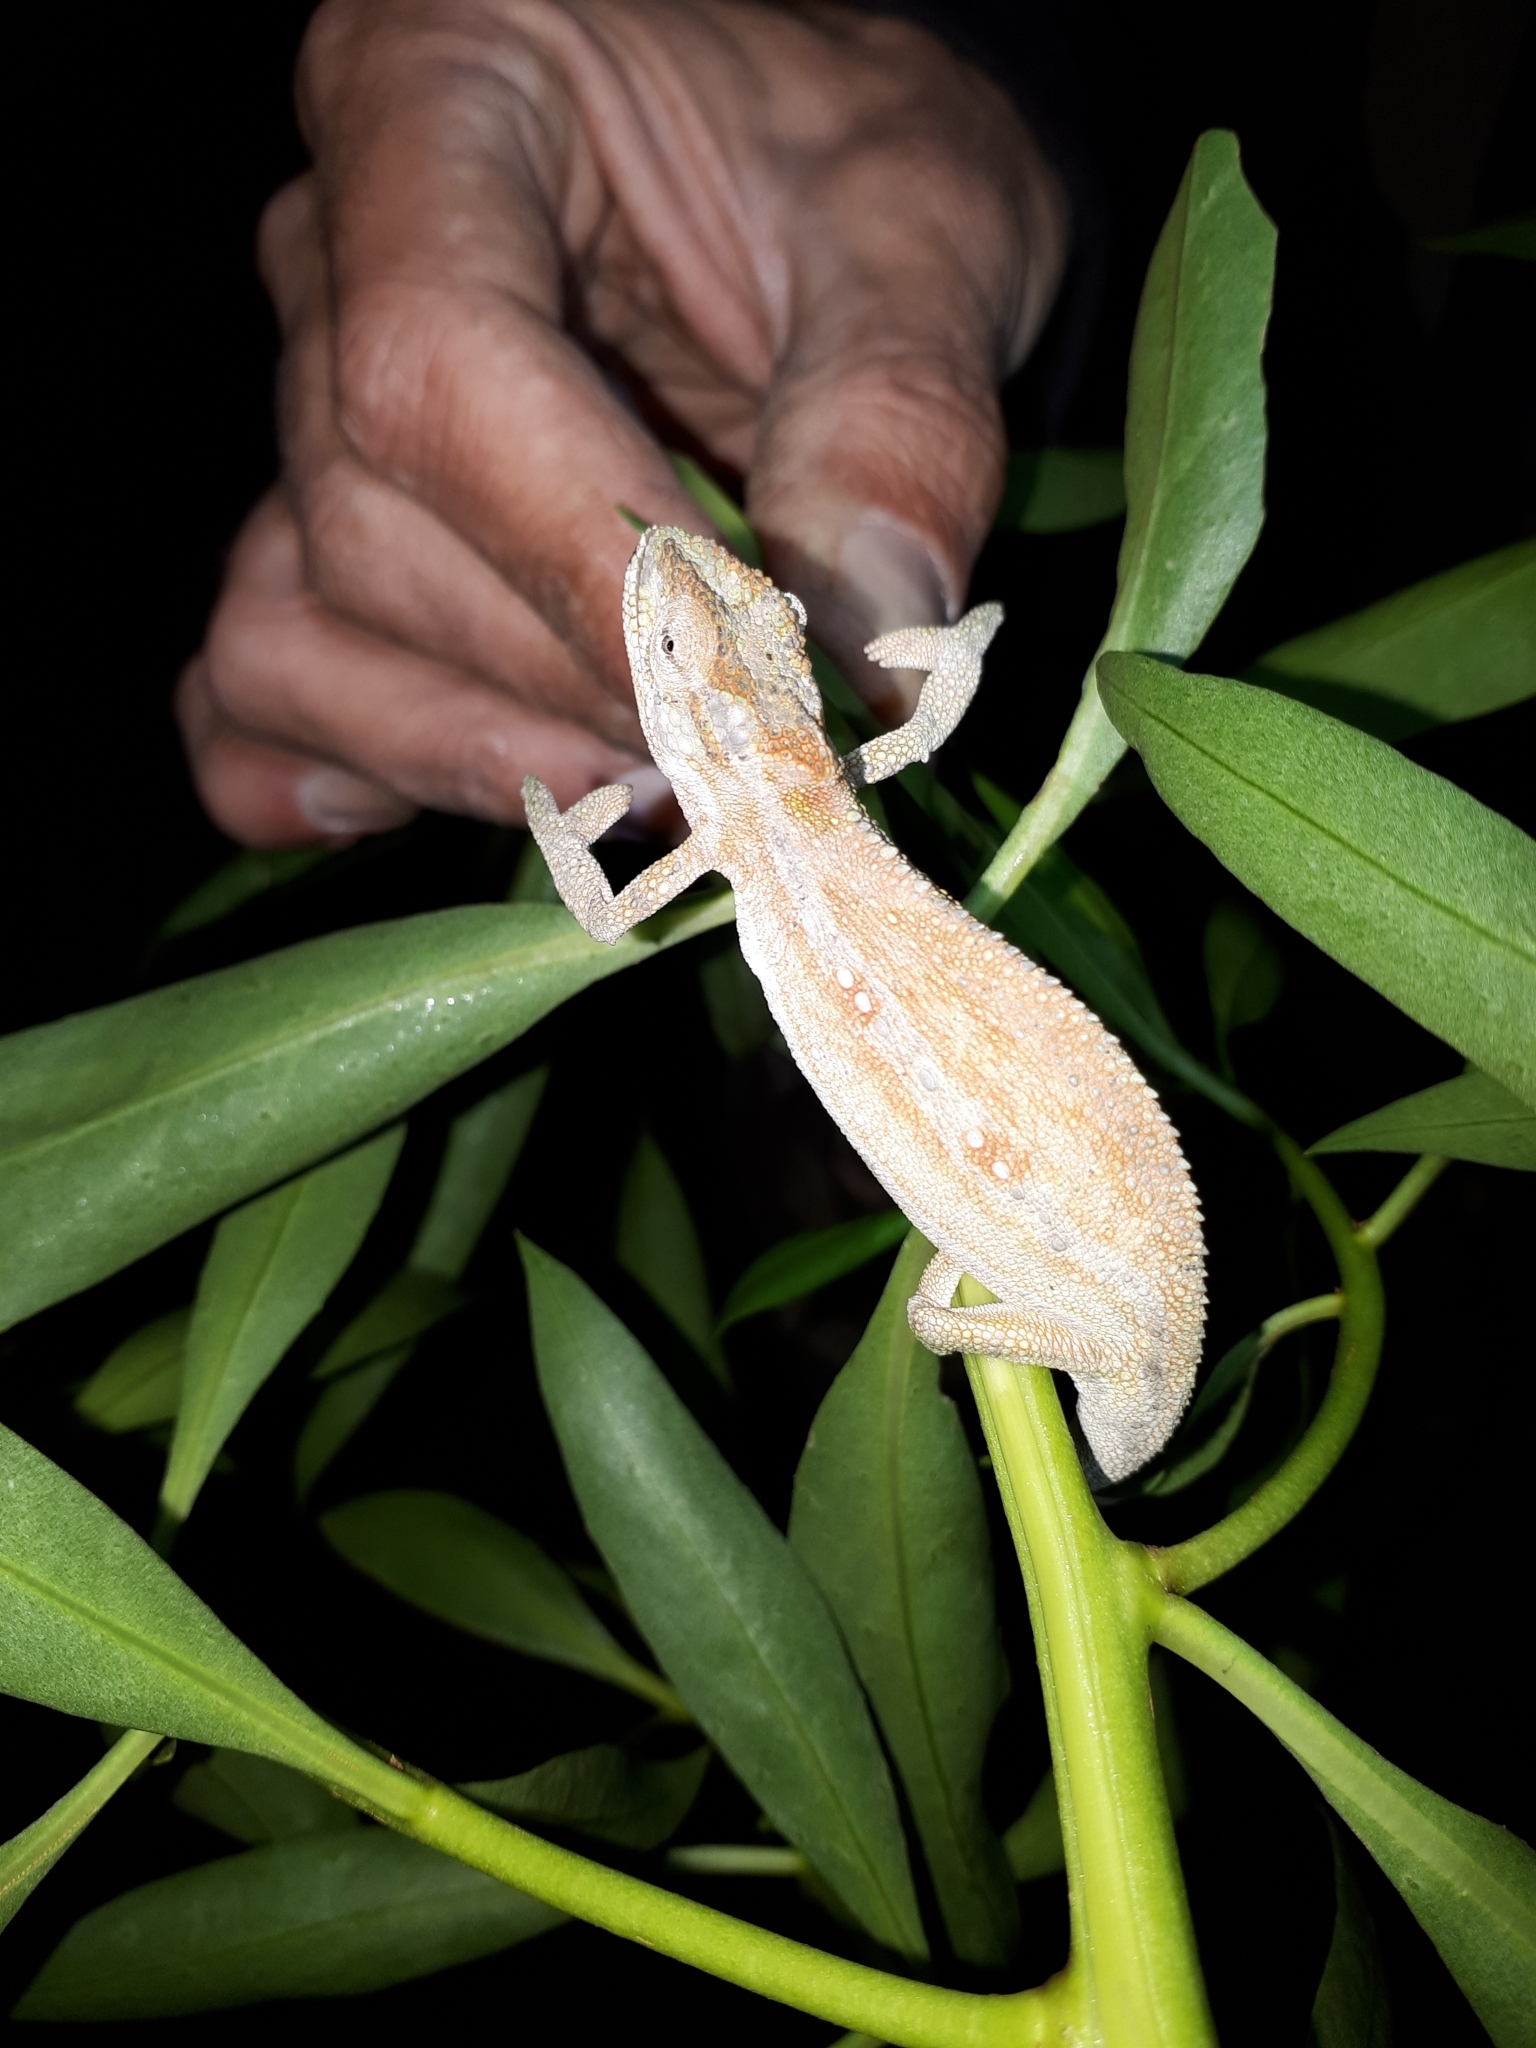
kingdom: Animalia
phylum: Chordata
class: Squamata
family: Chamaeleonidae
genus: Bradypodion
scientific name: Bradypodion pumilum
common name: Cape dwarf chameleon
